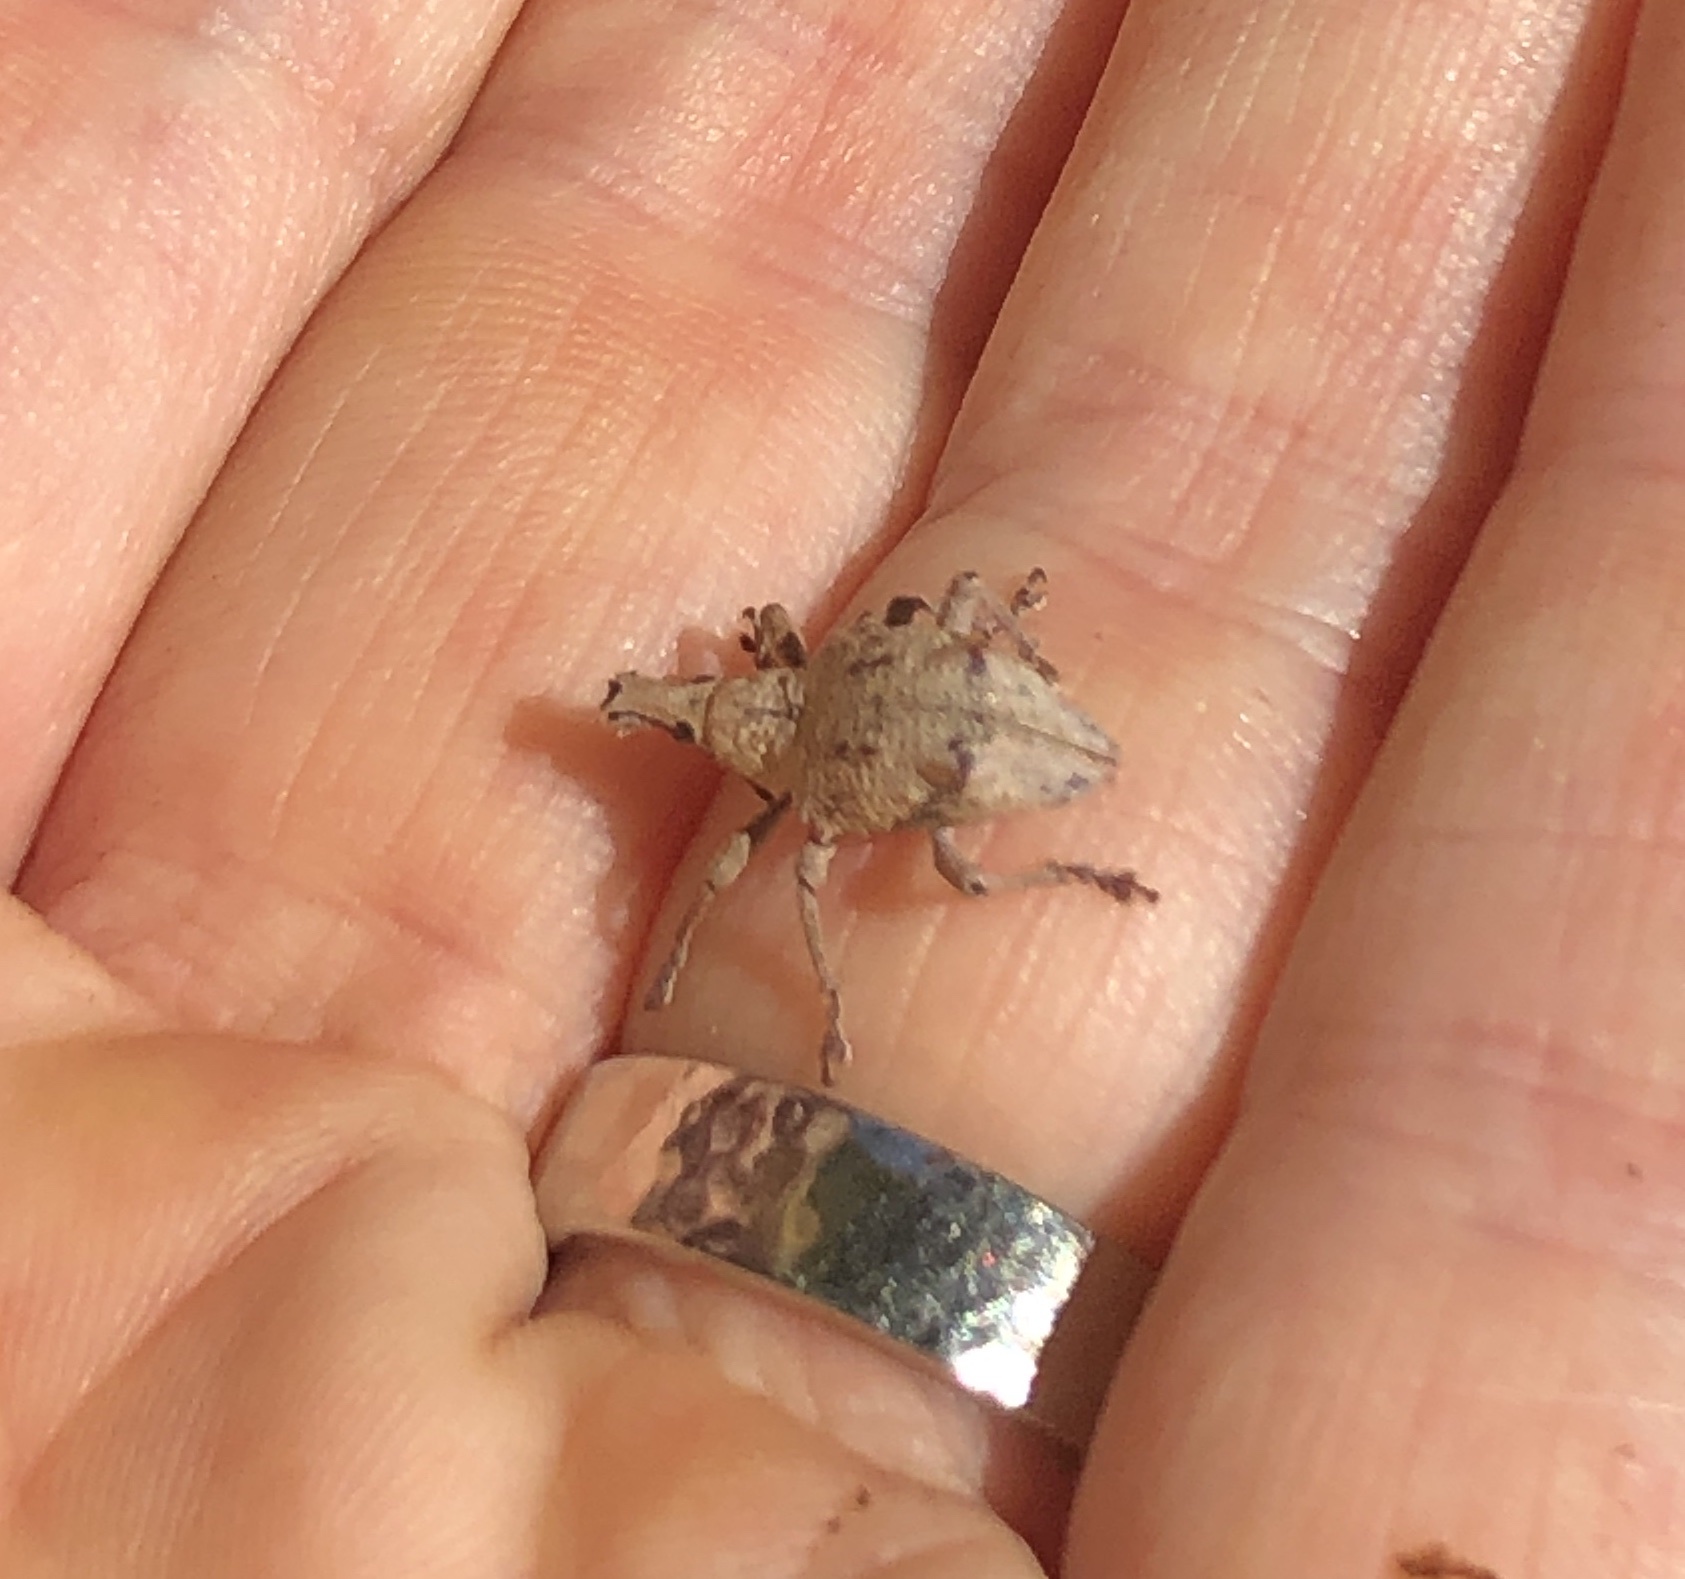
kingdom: Animalia
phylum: Arthropoda
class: Insecta
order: Coleoptera
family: Curculionidae
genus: Eurynotia
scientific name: Eurynotia hochstetteri
